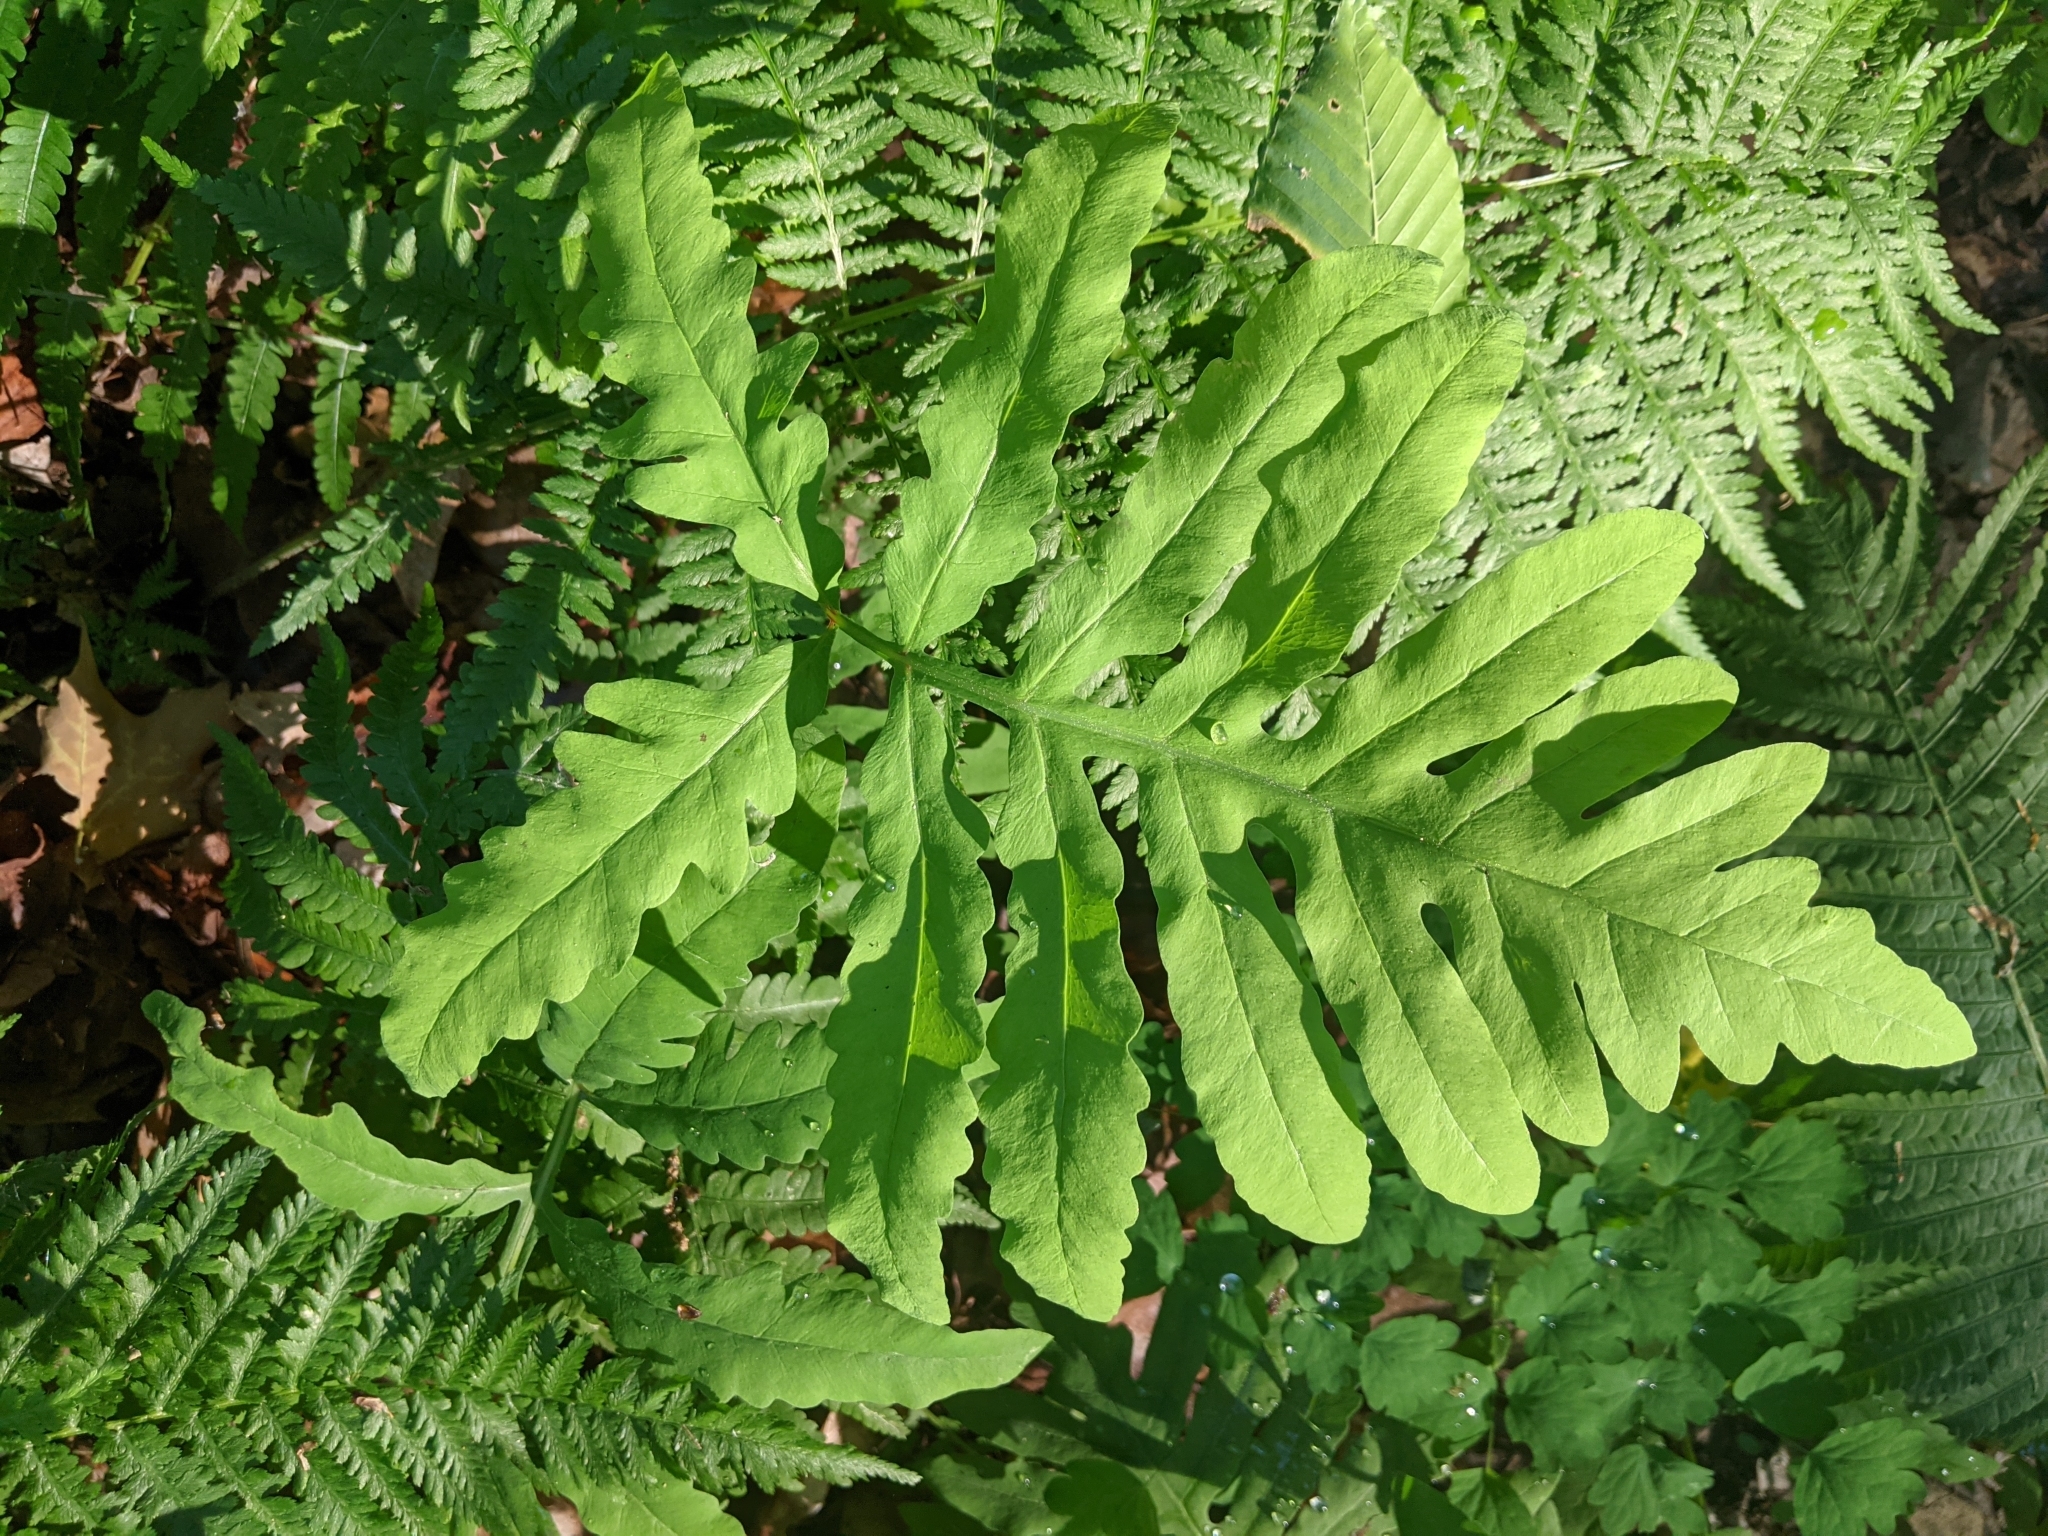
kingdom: Plantae
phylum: Tracheophyta
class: Polypodiopsida
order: Polypodiales
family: Onocleaceae
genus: Onoclea
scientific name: Onoclea sensibilis
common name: Sensitive fern
